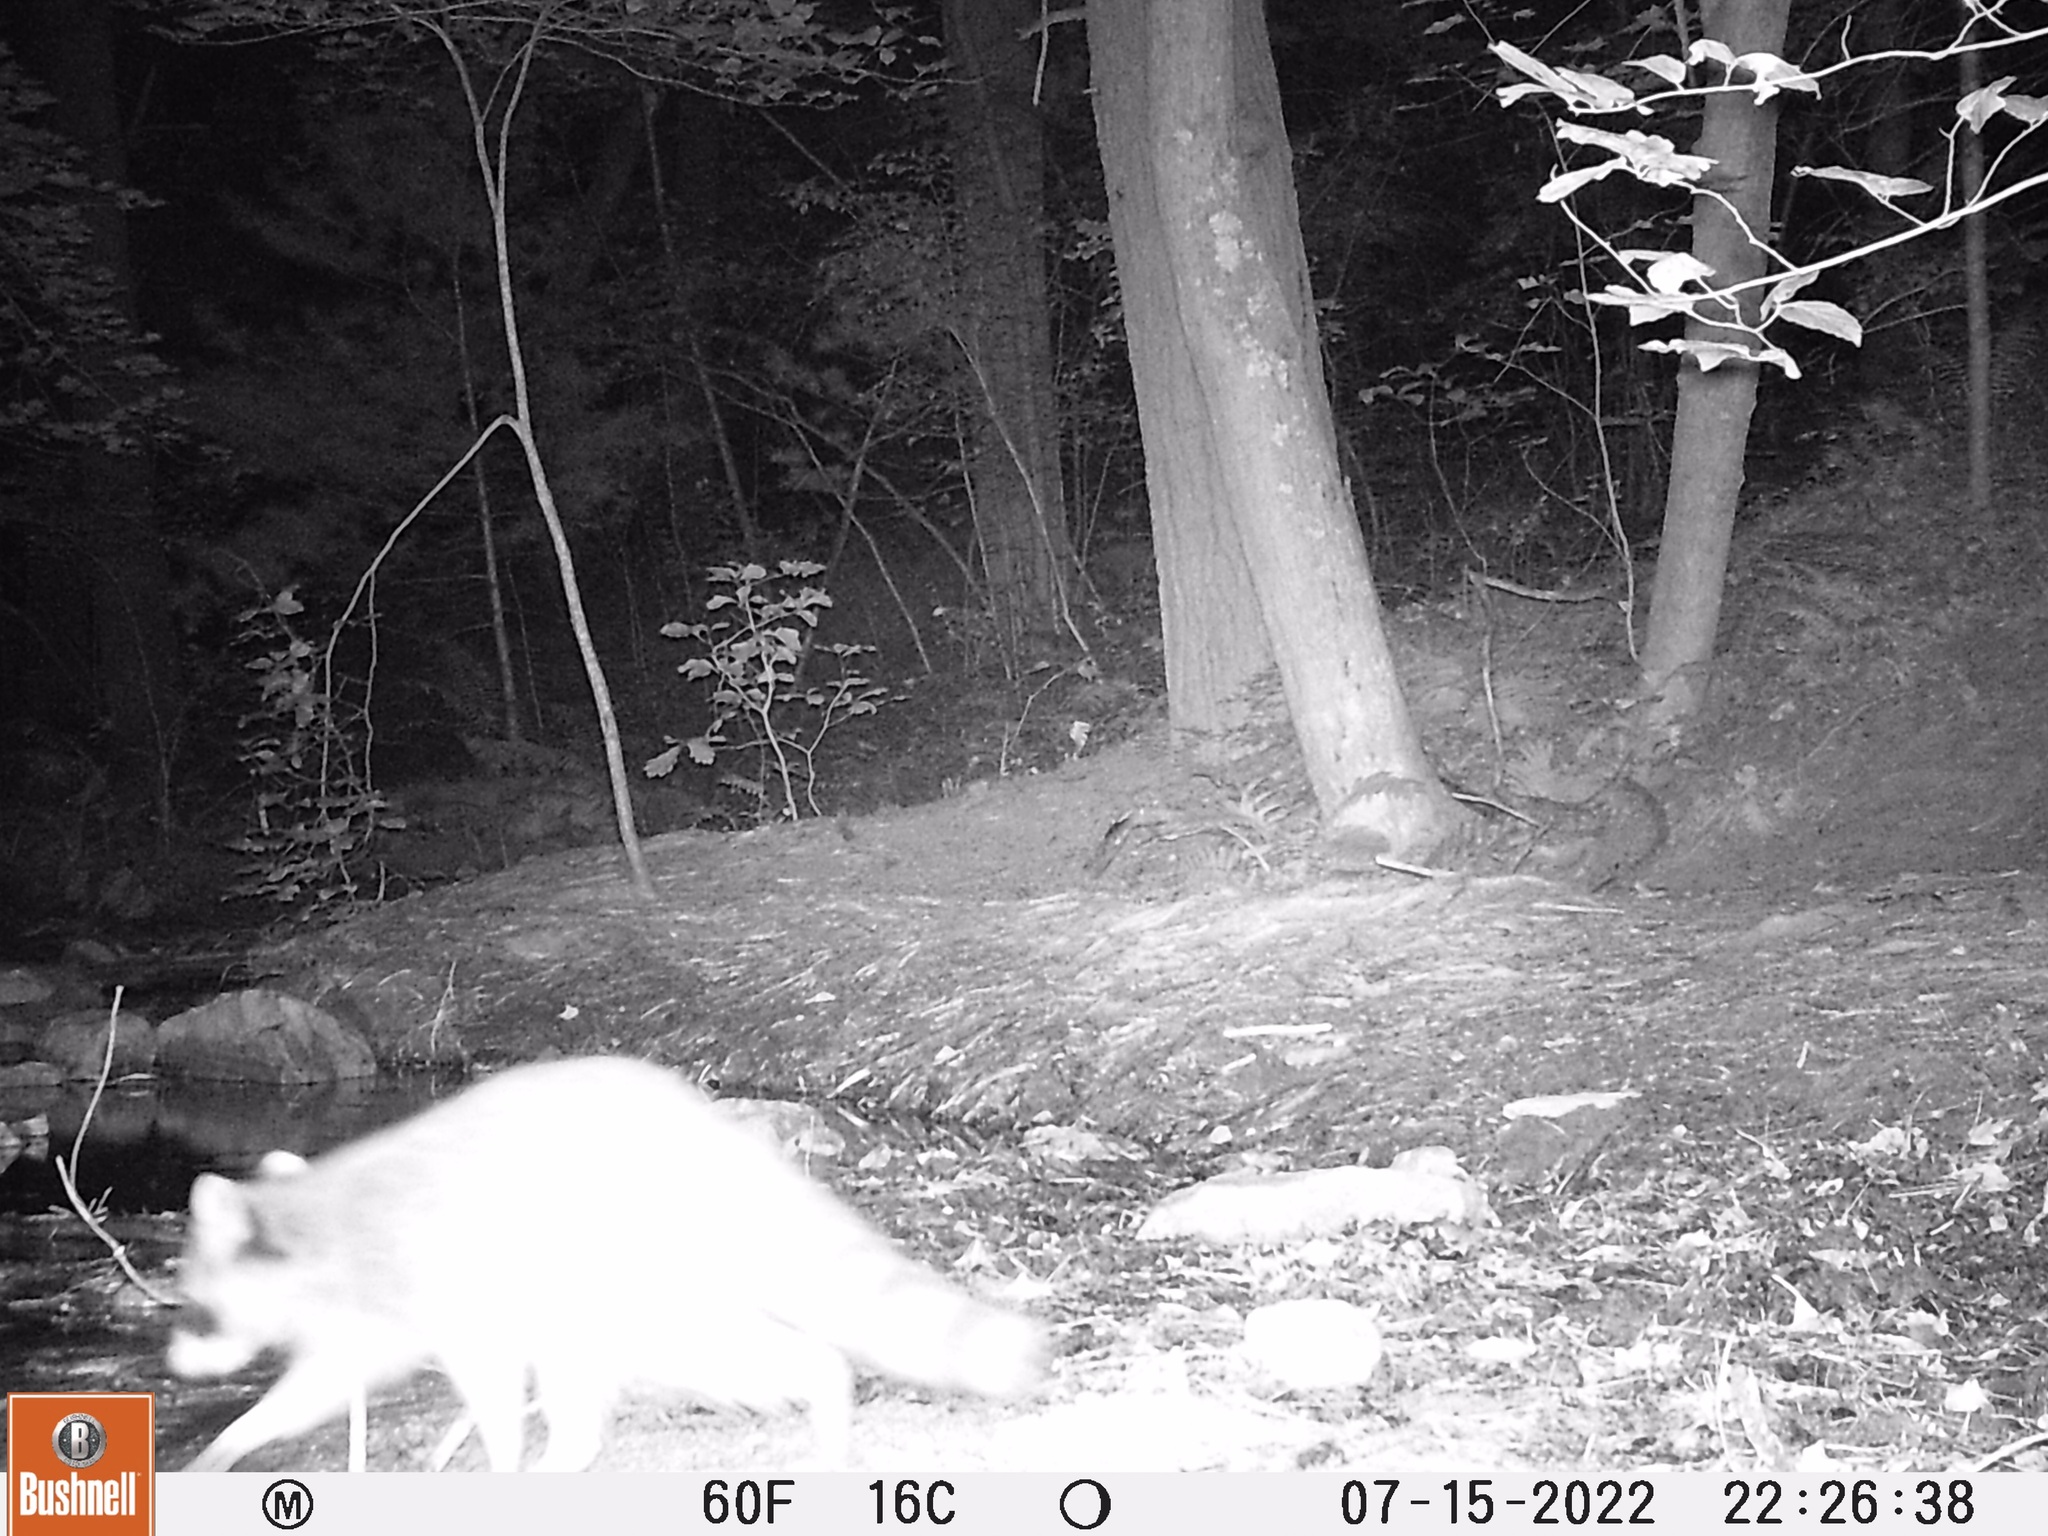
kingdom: Animalia
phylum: Chordata
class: Mammalia
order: Carnivora
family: Procyonidae
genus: Procyon
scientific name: Procyon lotor
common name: Raccoon
